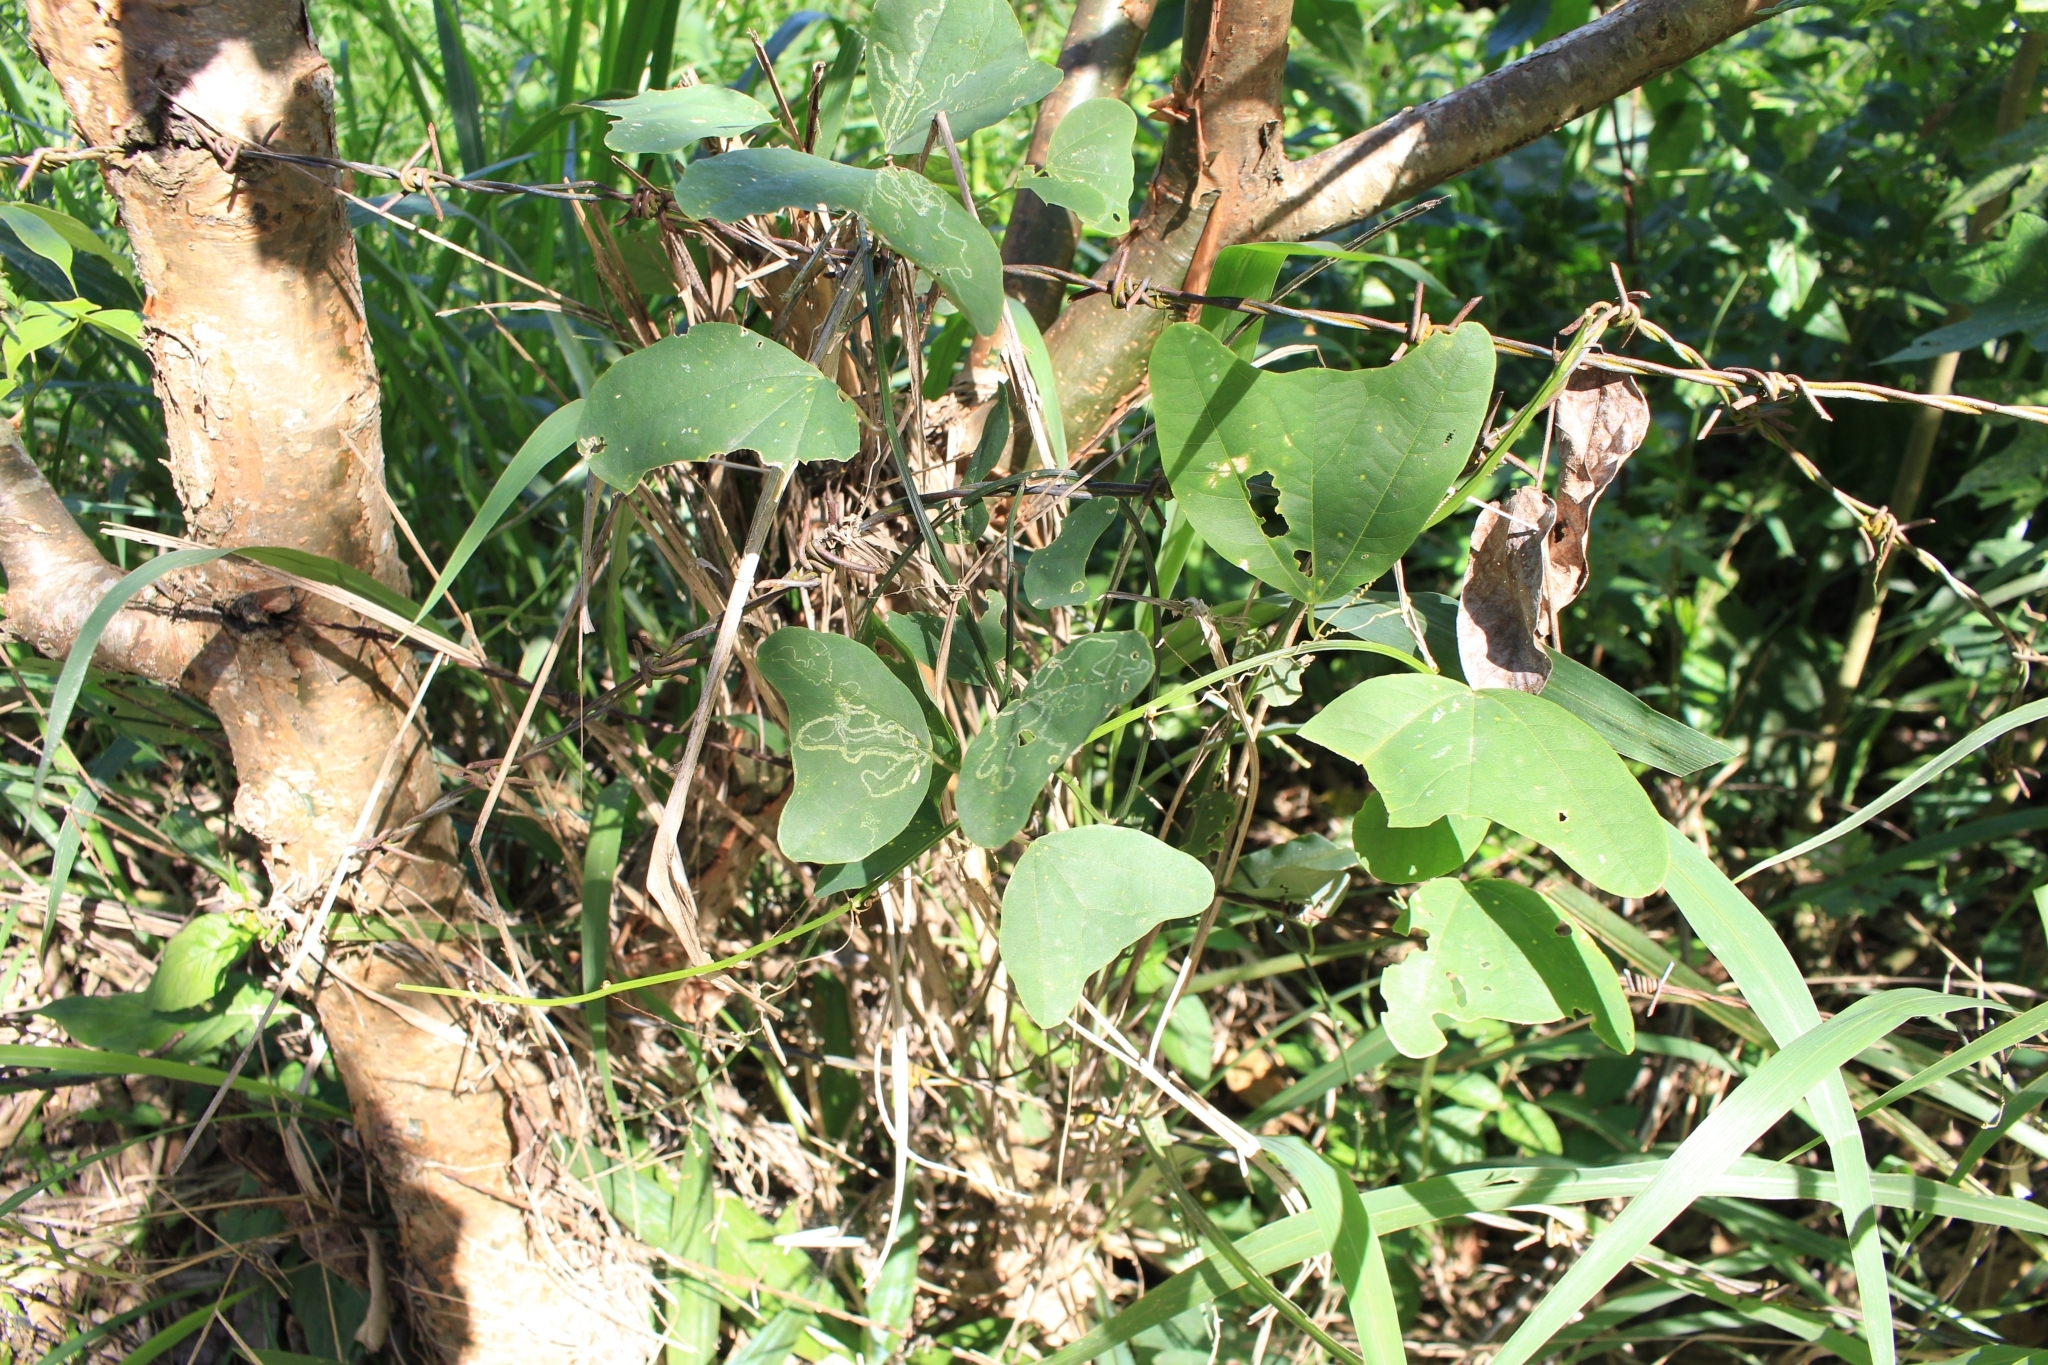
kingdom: Plantae
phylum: Tracheophyta
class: Magnoliopsida
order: Malpighiales
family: Passifloraceae
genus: Passiflora
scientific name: Passiflora biflora
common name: Twoflower passionflower
